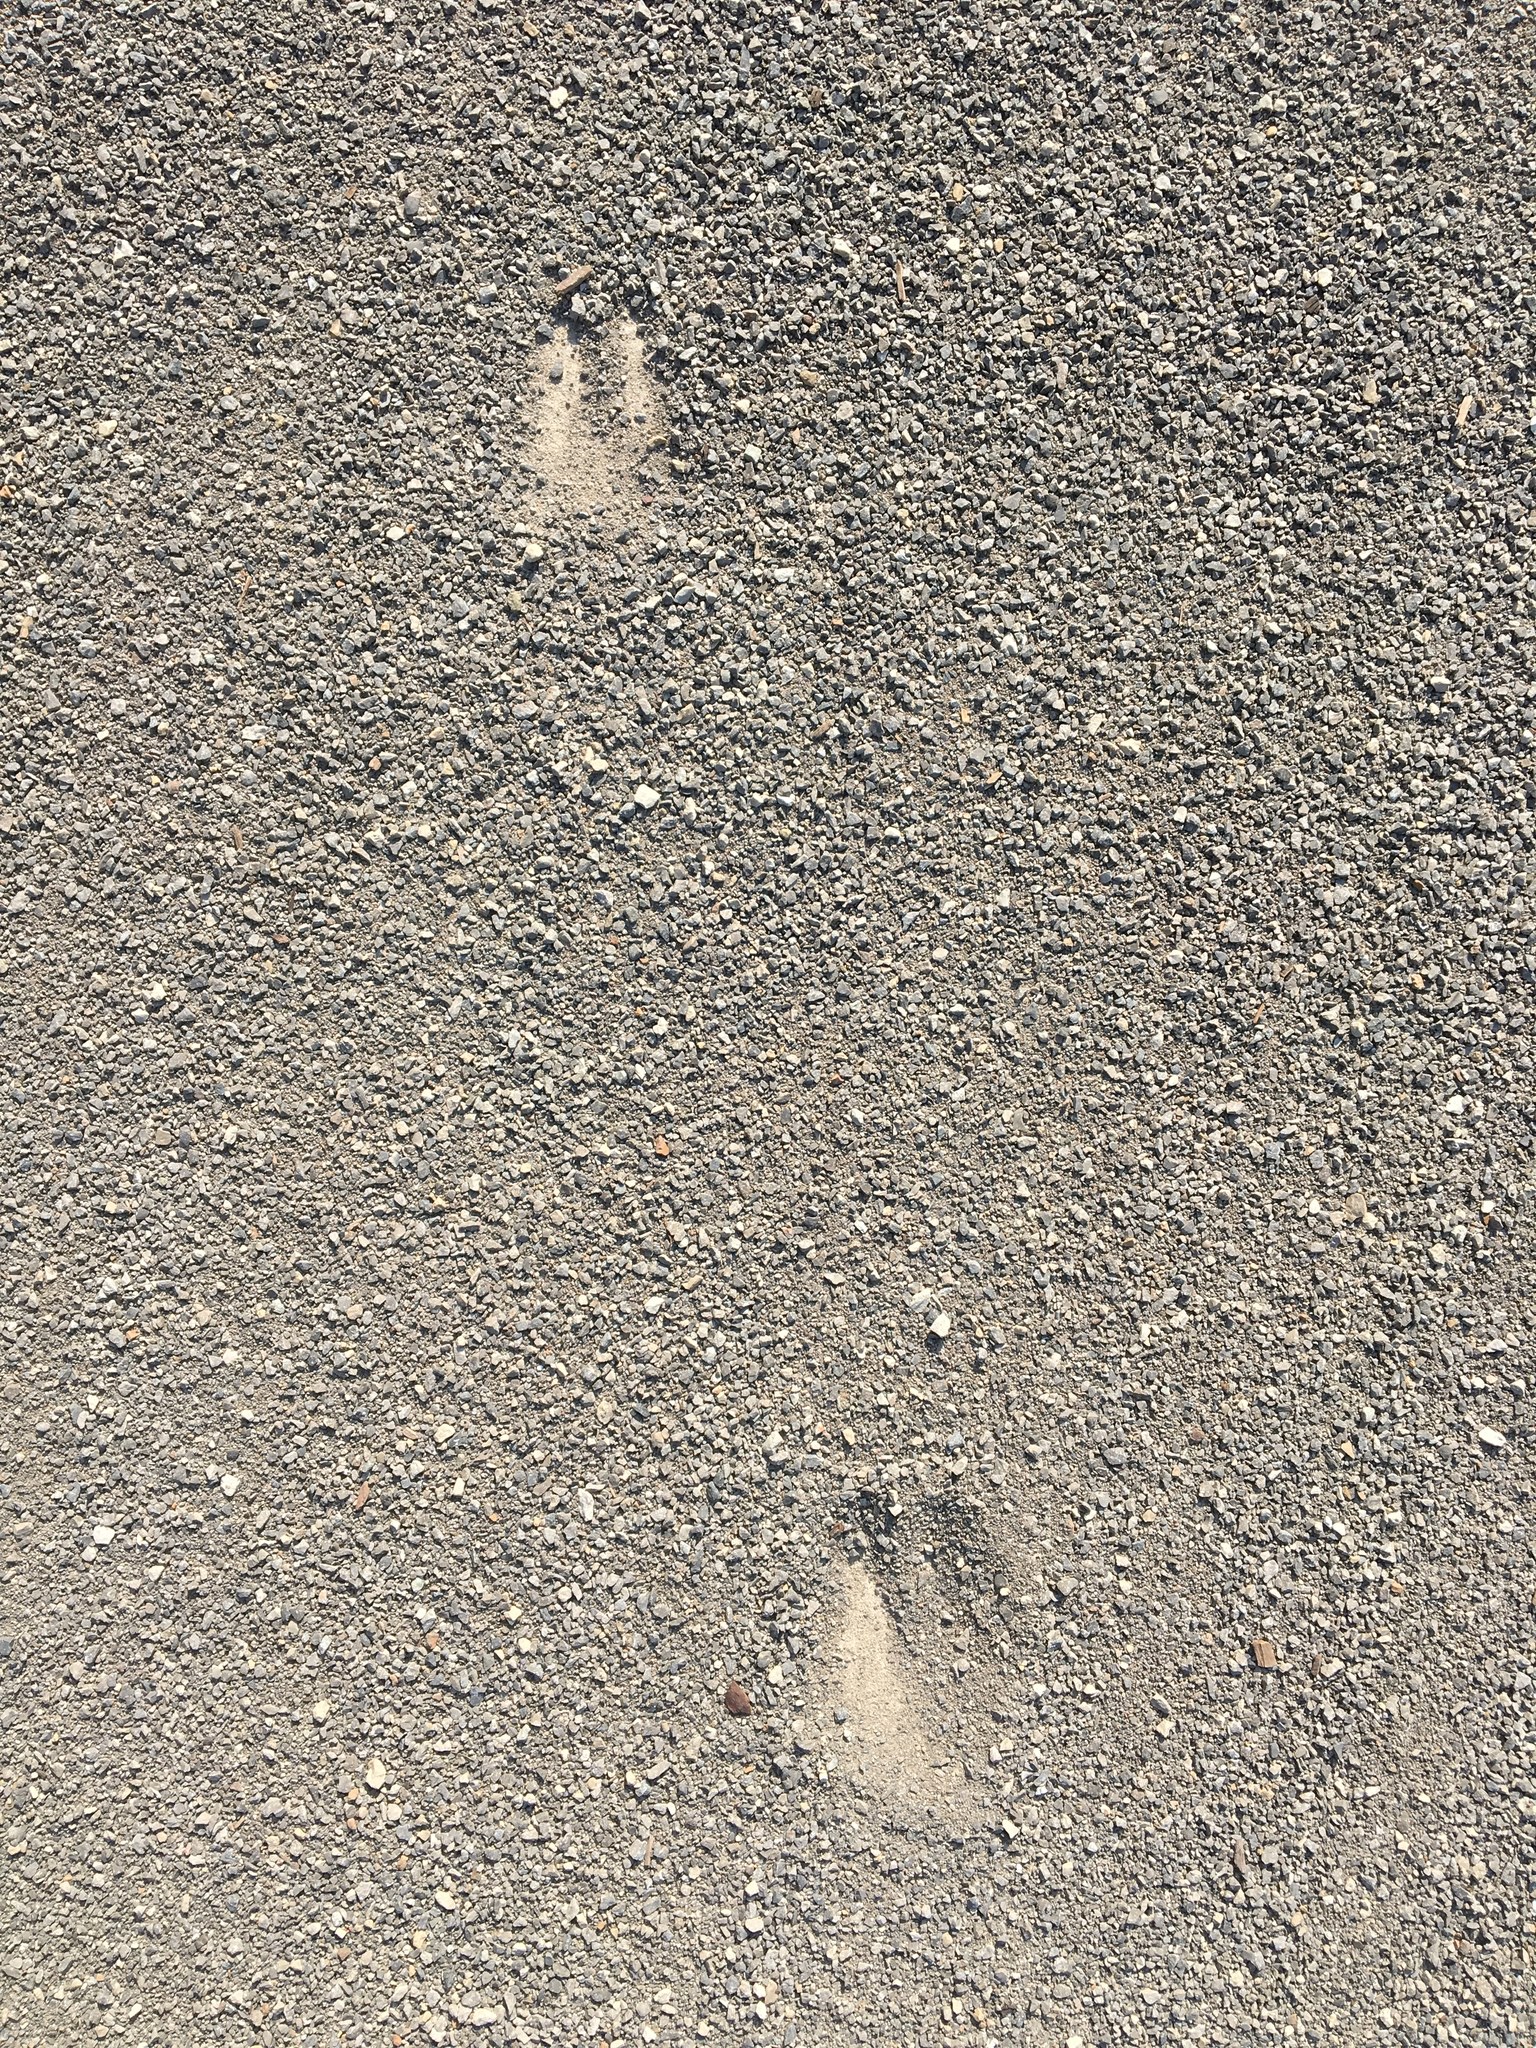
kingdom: Animalia
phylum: Chordata
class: Mammalia
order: Artiodactyla
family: Cervidae
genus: Odocoileus
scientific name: Odocoileus virginianus
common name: White-tailed deer
